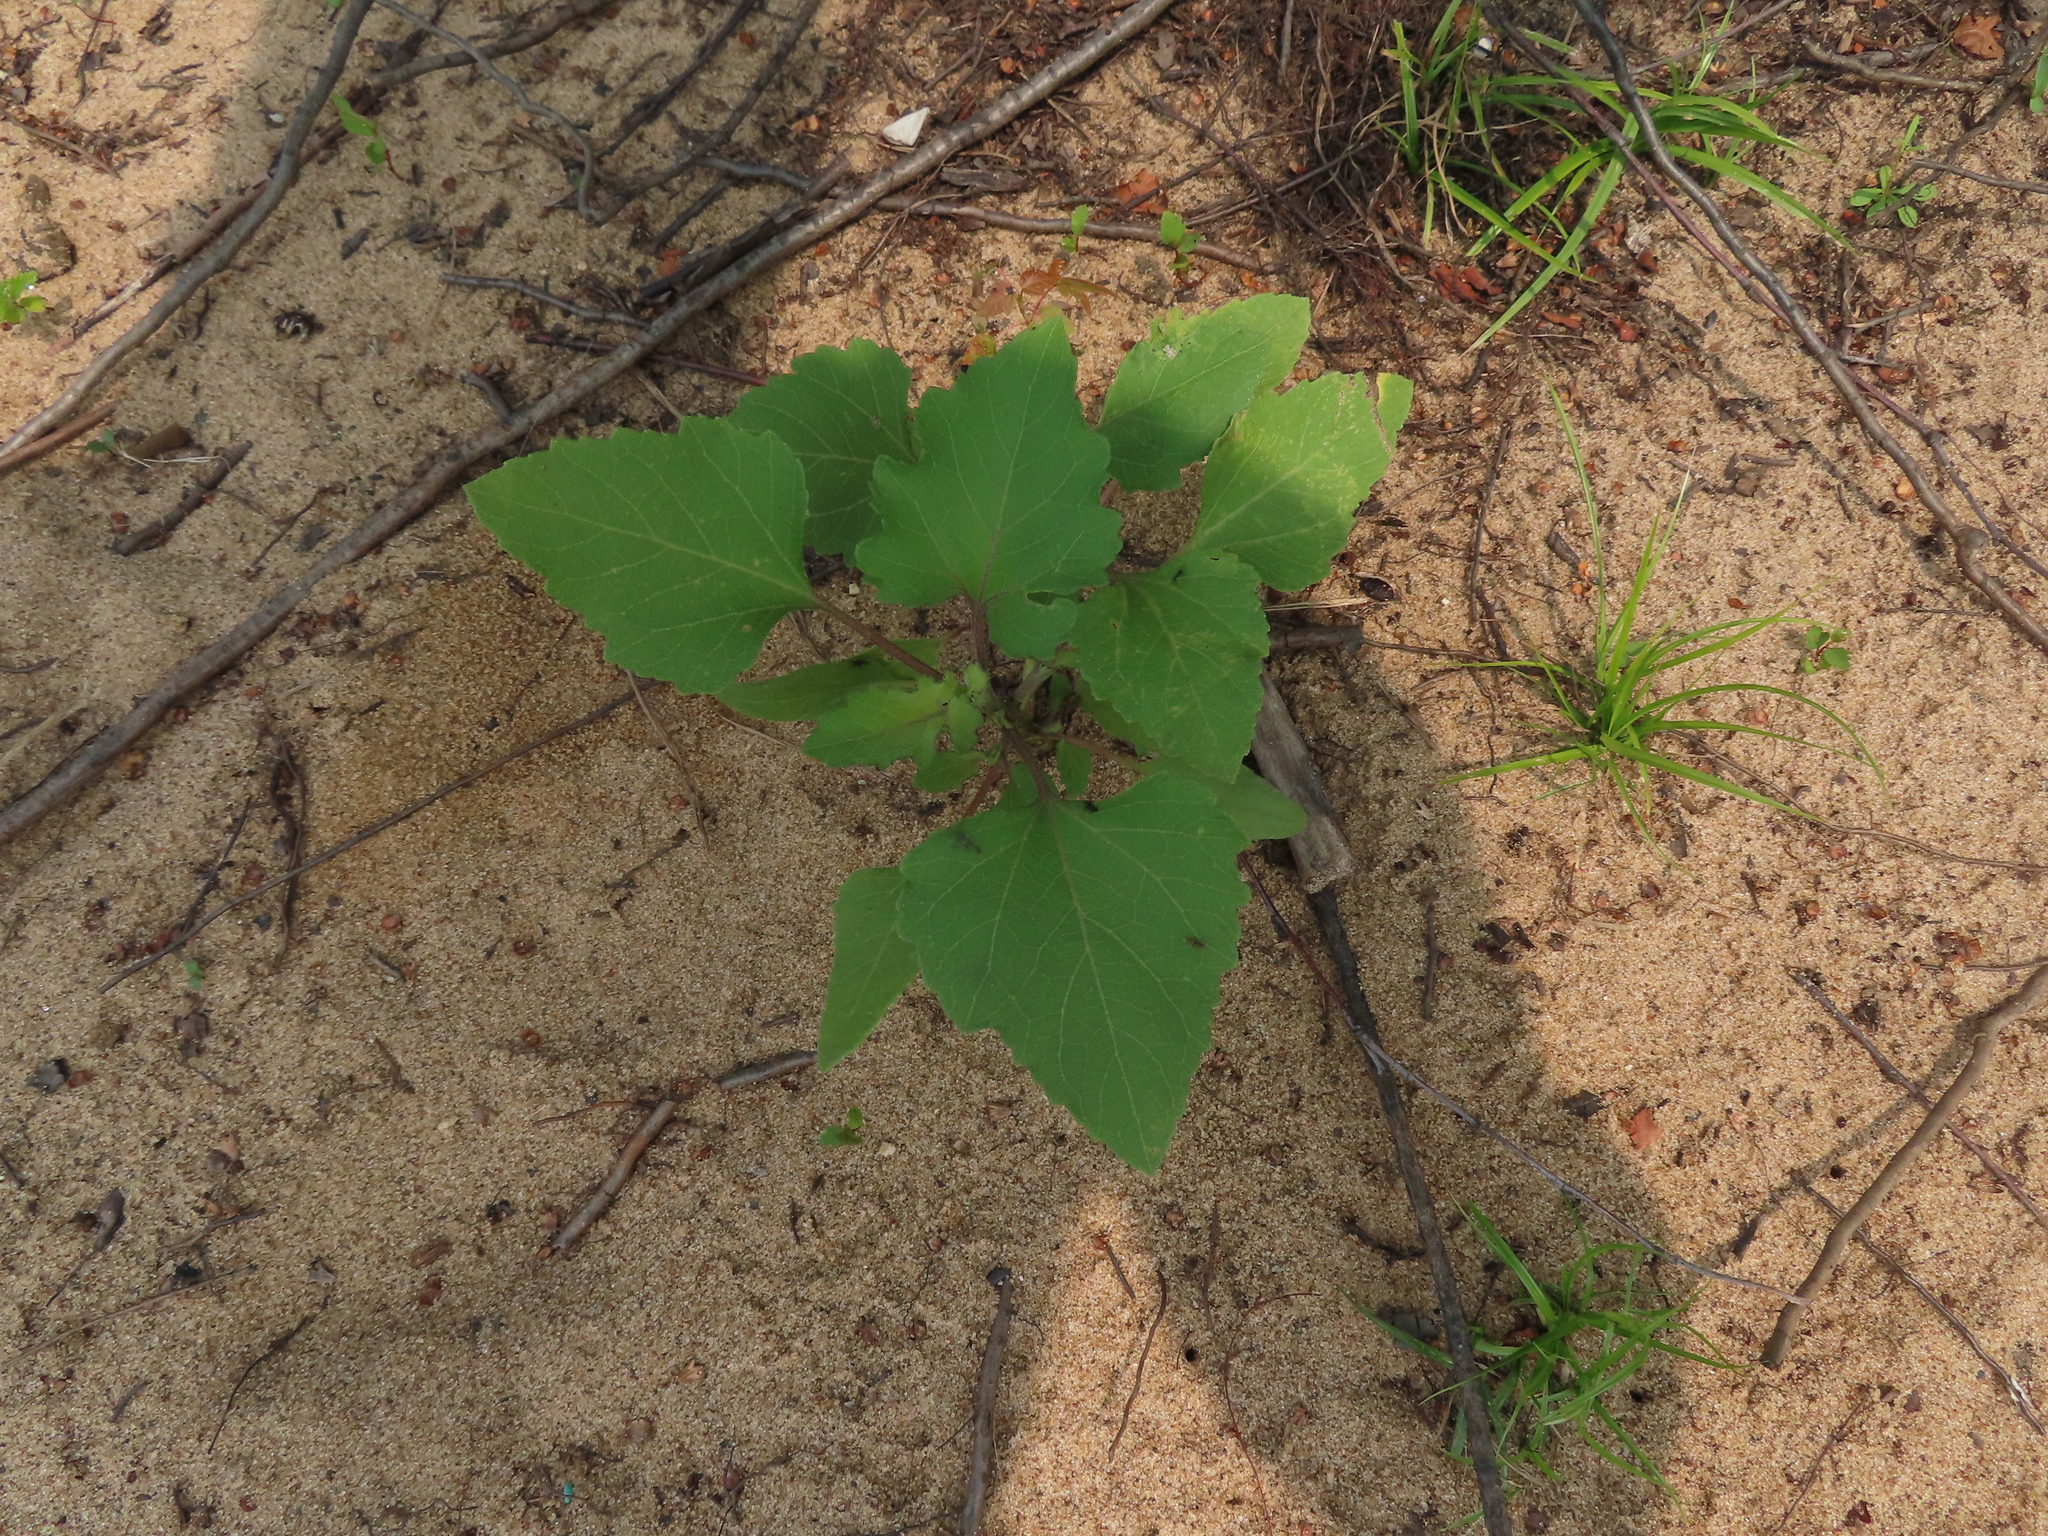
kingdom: Plantae
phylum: Tracheophyta
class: Magnoliopsida
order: Asterales
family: Asteraceae
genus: Xanthium
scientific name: Xanthium strumarium
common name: Rough cocklebur
